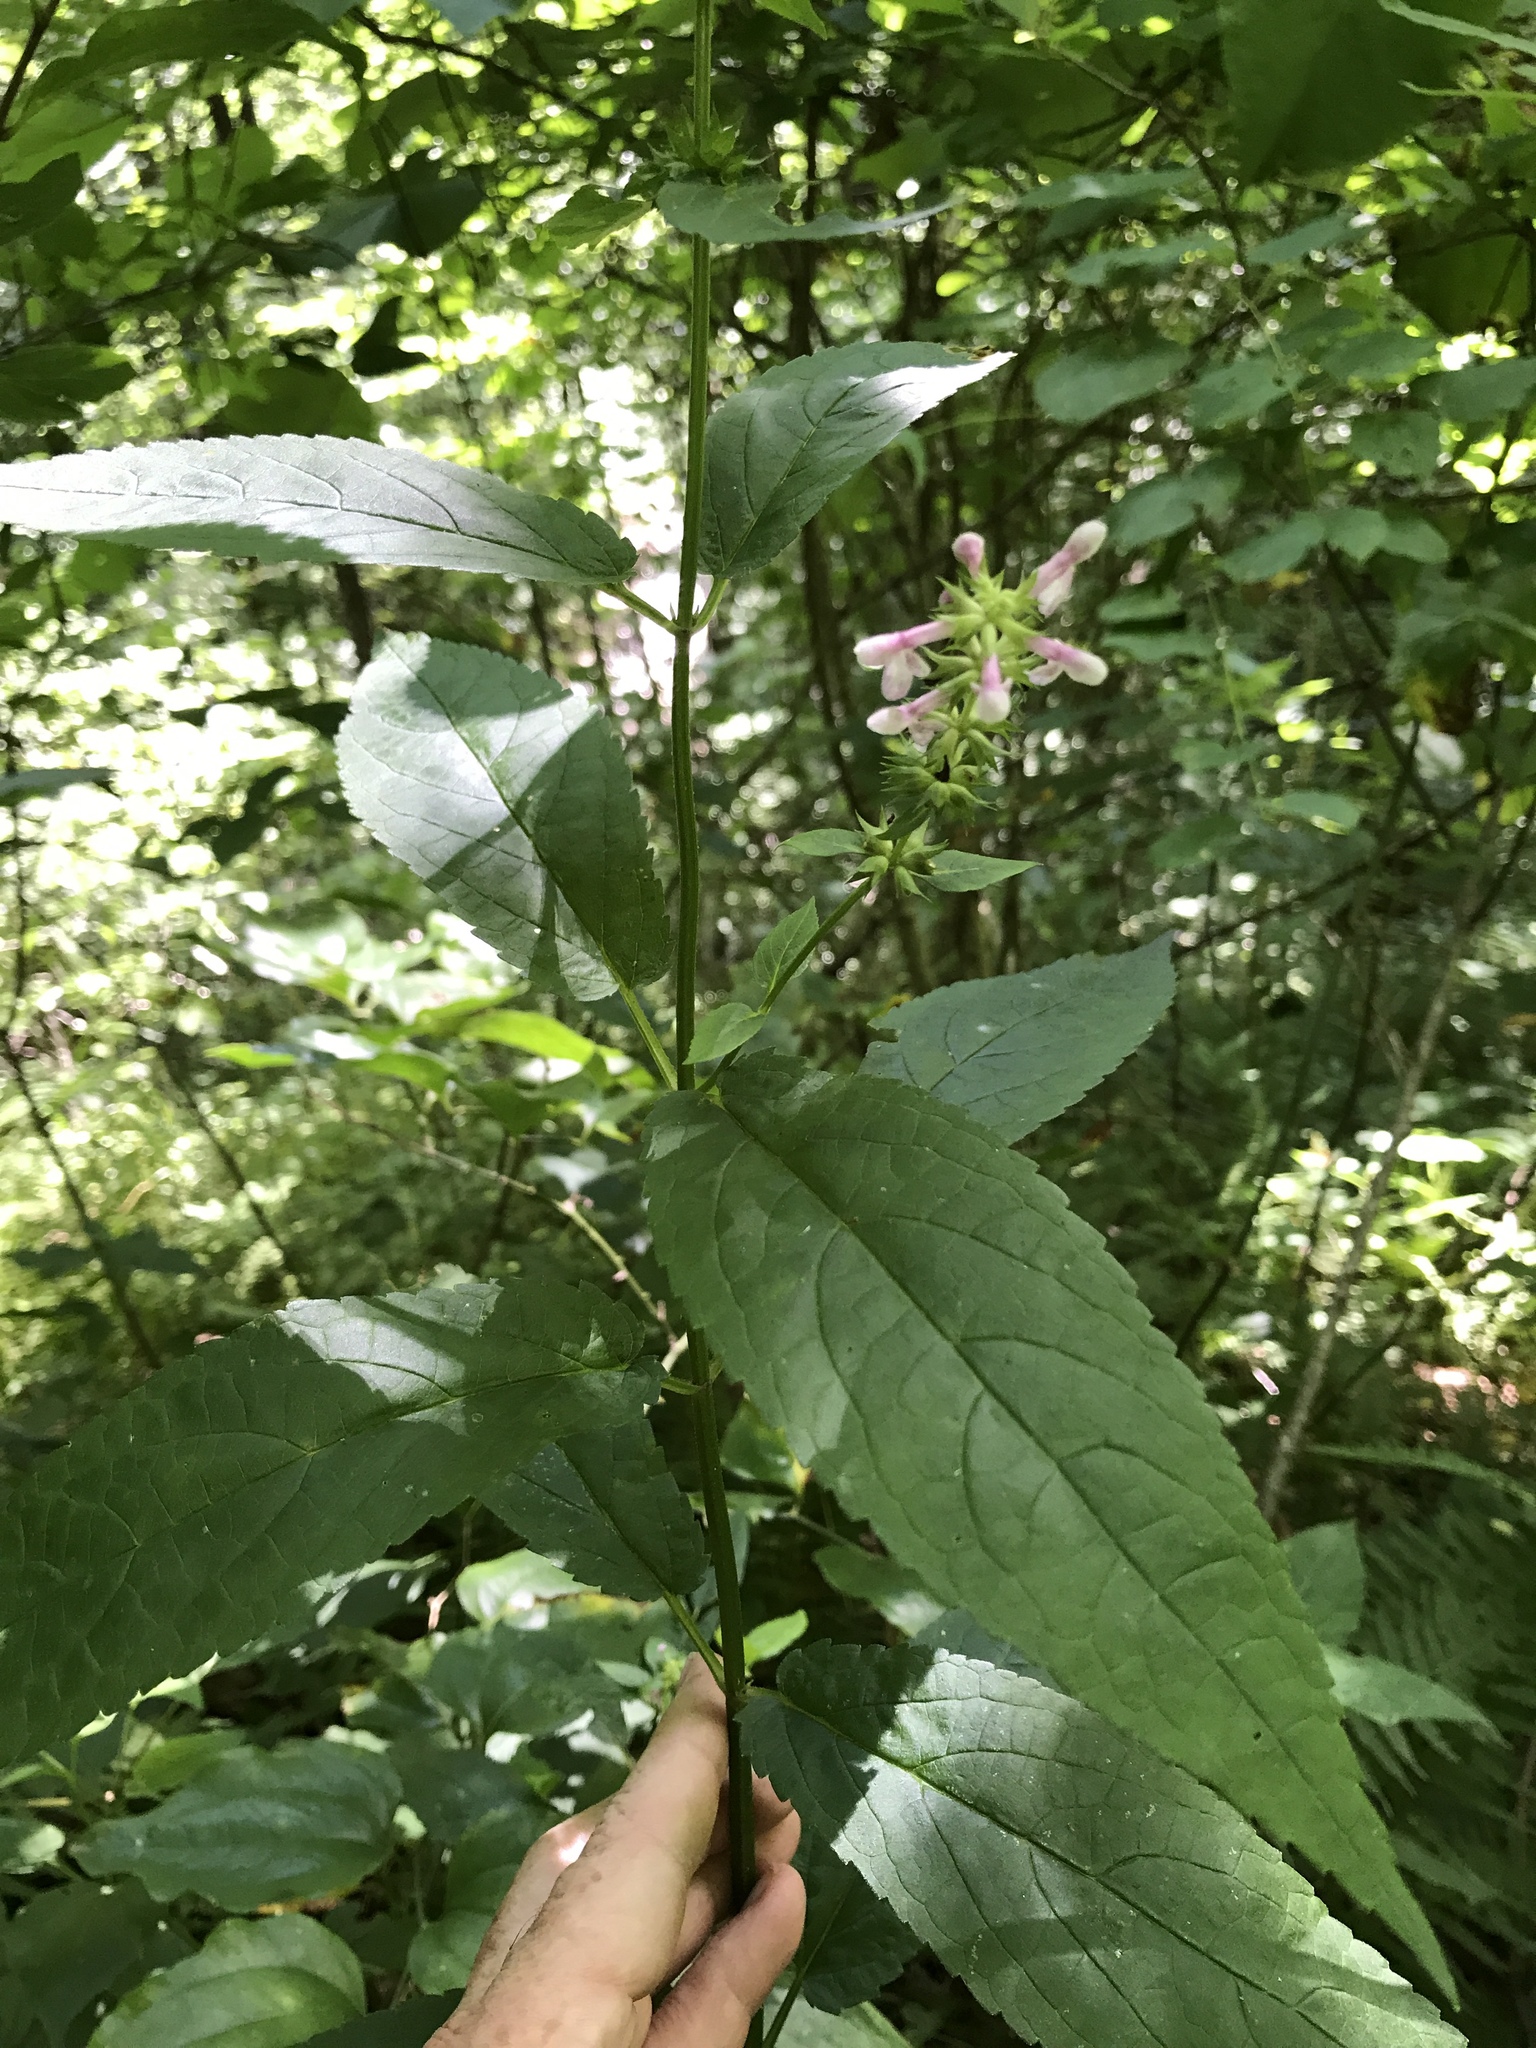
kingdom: Plantae
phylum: Tracheophyta
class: Magnoliopsida
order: Lamiales
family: Lamiaceae
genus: Stachys
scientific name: Stachys latidens
